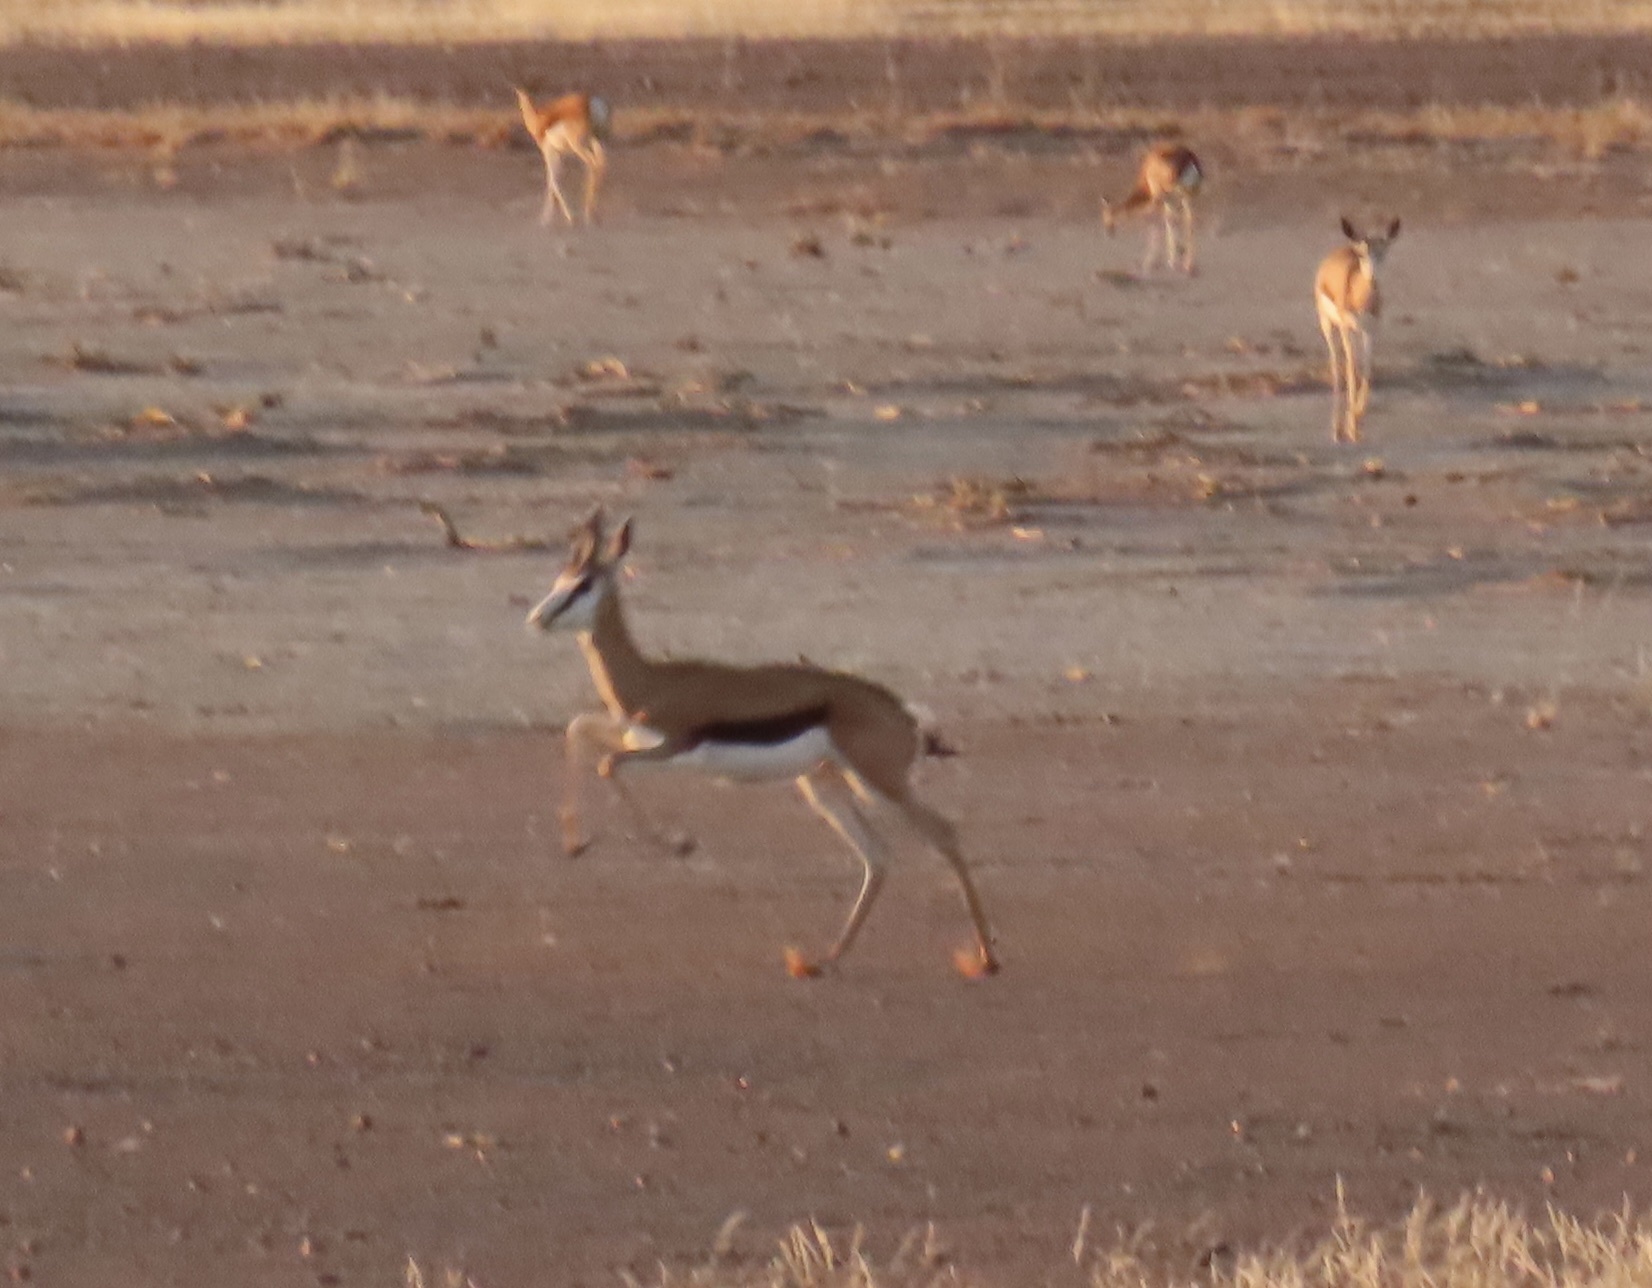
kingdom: Animalia
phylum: Chordata
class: Mammalia
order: Artiodactyla
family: Bovidae
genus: Antidorcas
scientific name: Antidorcas marsupialis
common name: Springbok
